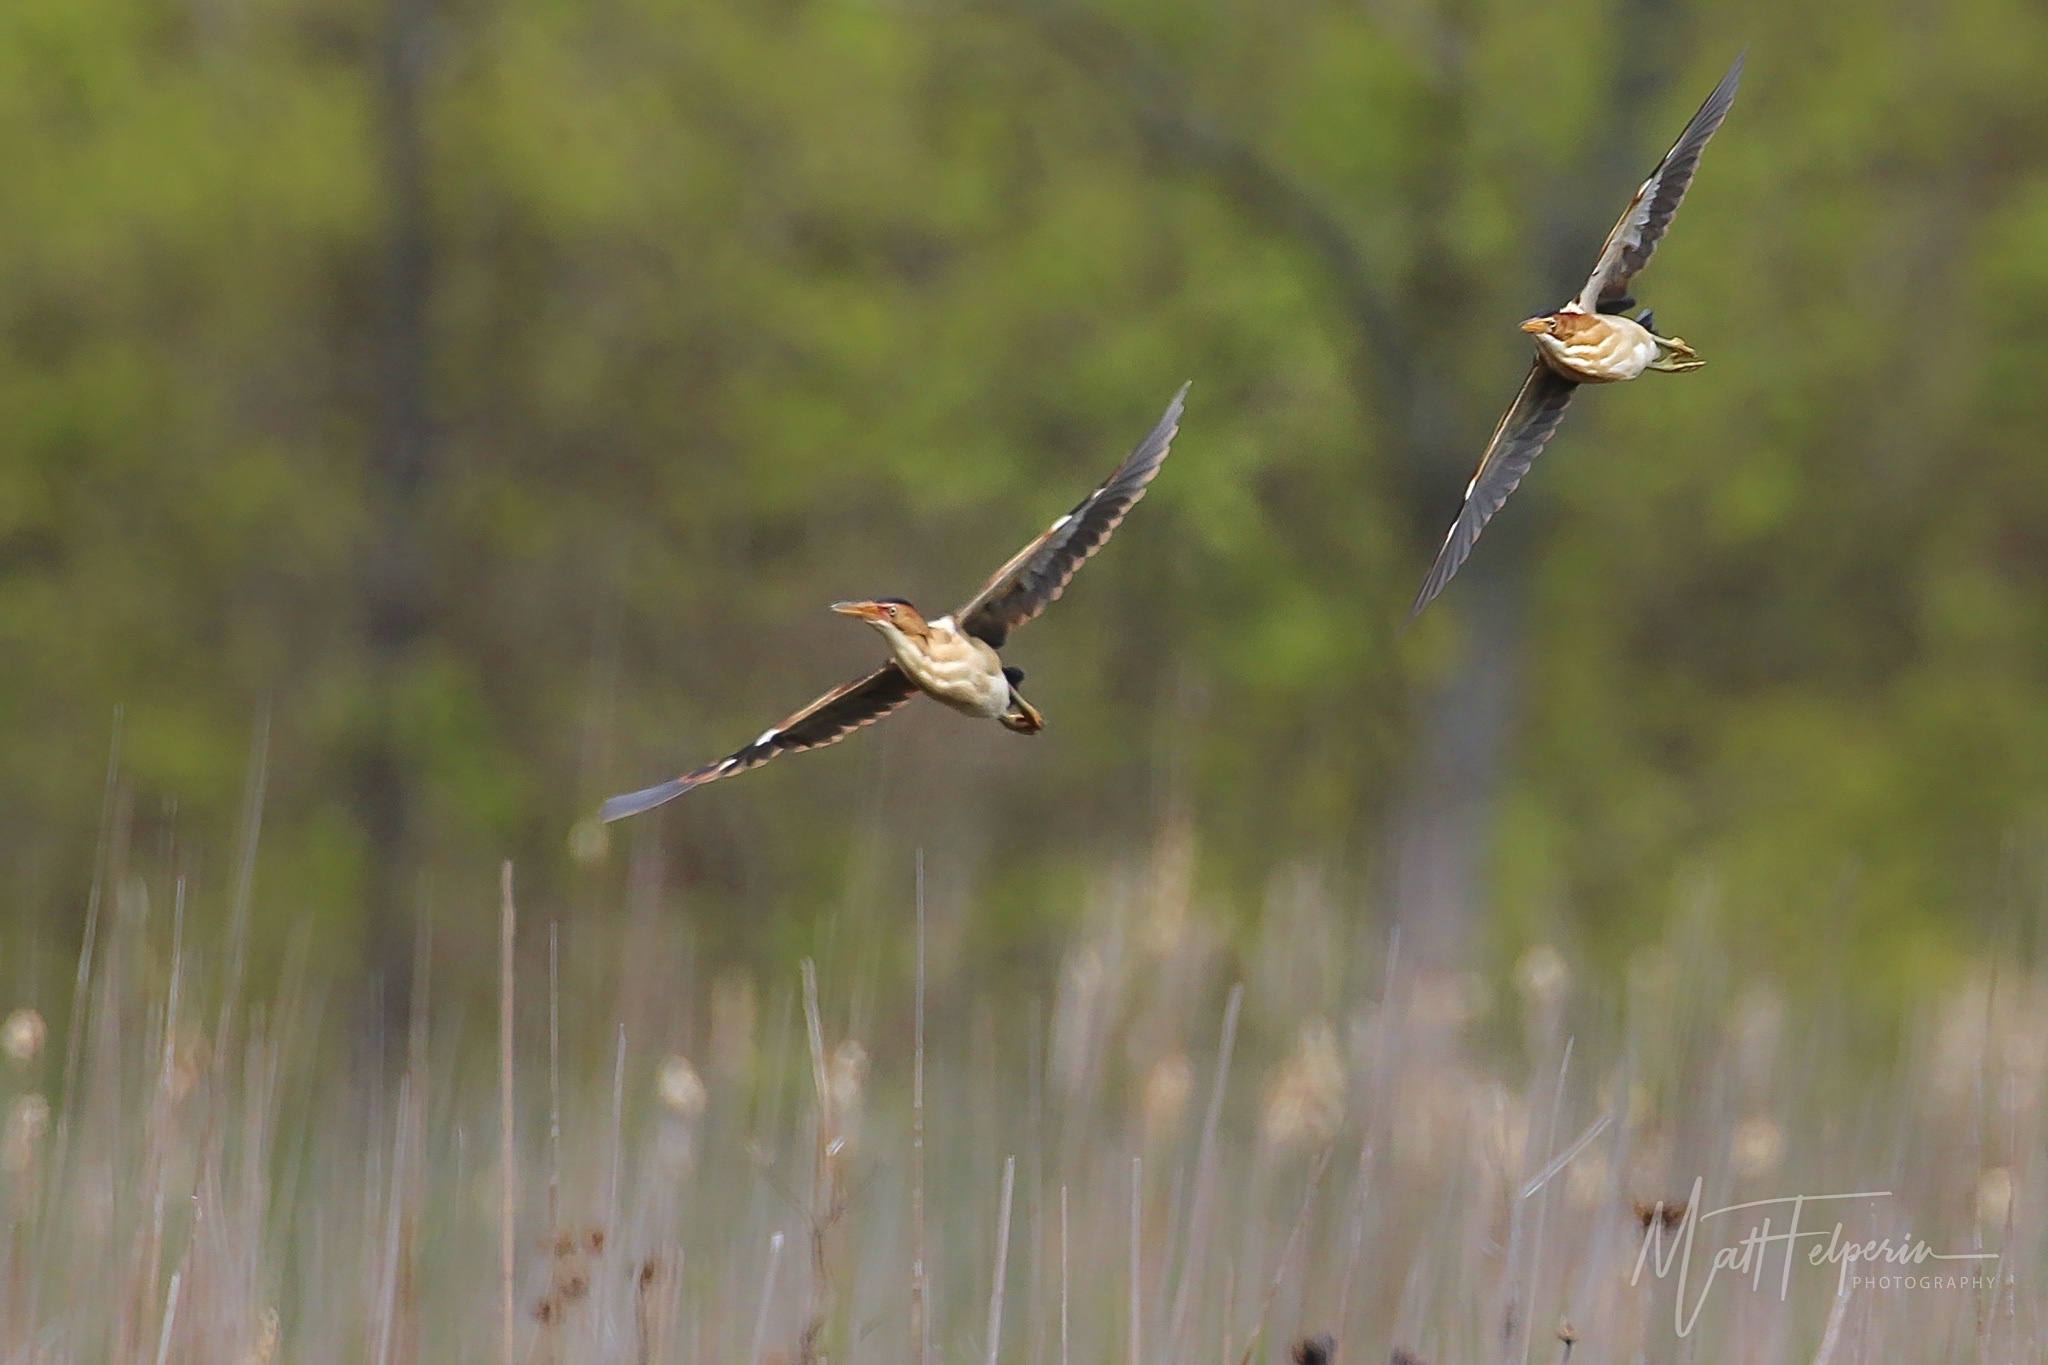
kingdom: Animalia
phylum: Chordata
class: Aves
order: Pelecaniformes
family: Ardeidae
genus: Ixobrychus
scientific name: Ixobrychus exilis
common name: Least bittern
